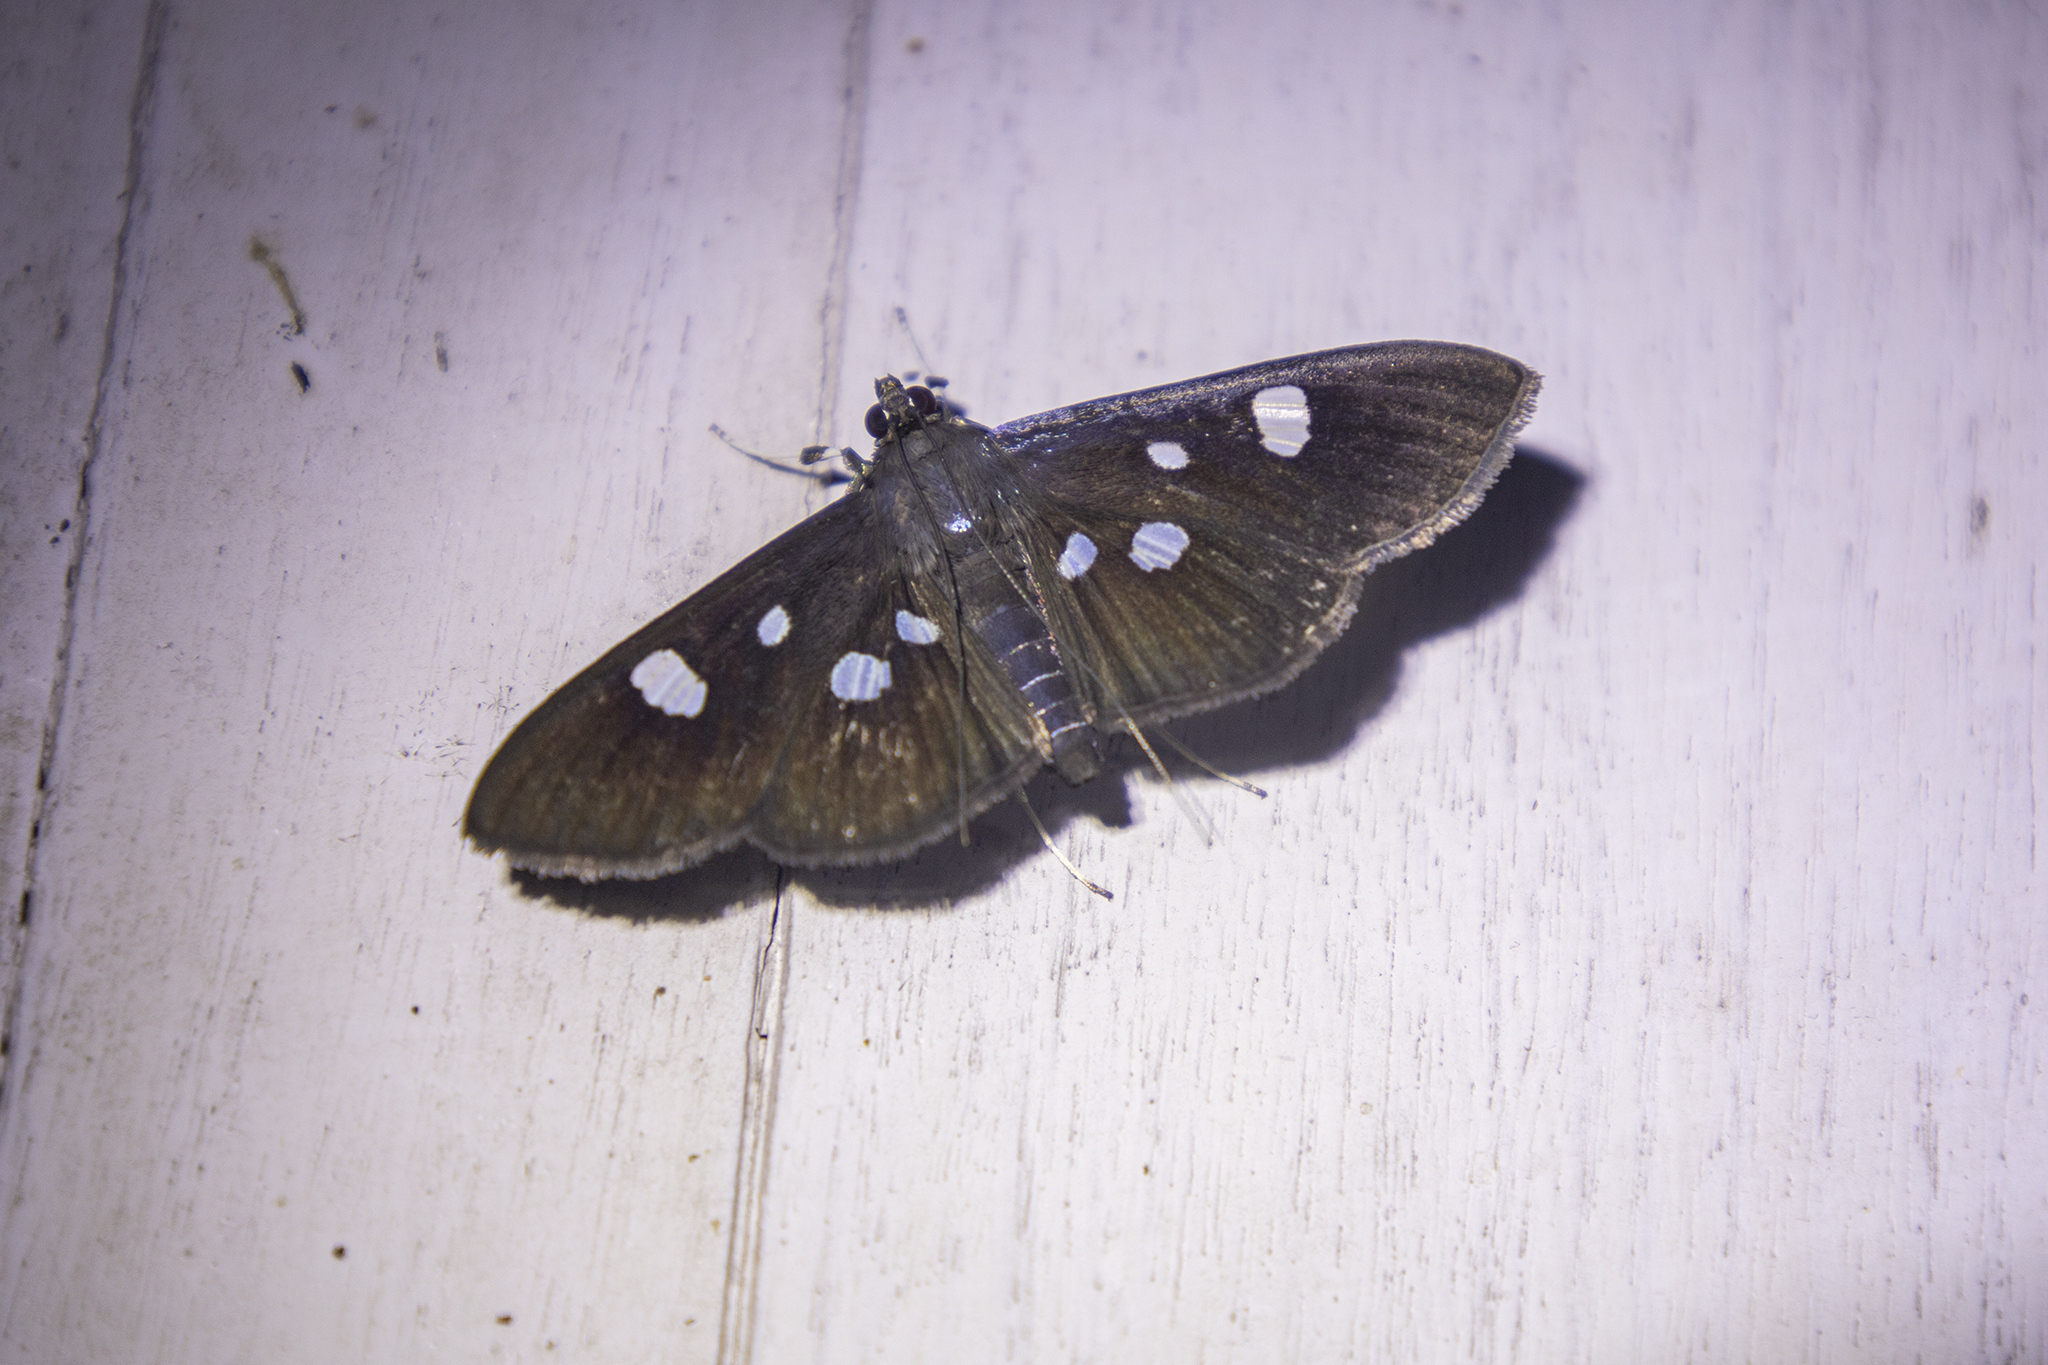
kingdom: Animalia
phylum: Arthropoda
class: Insecta
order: Lepidoptera
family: Crambidae
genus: Pygospila
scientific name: Pygospila
